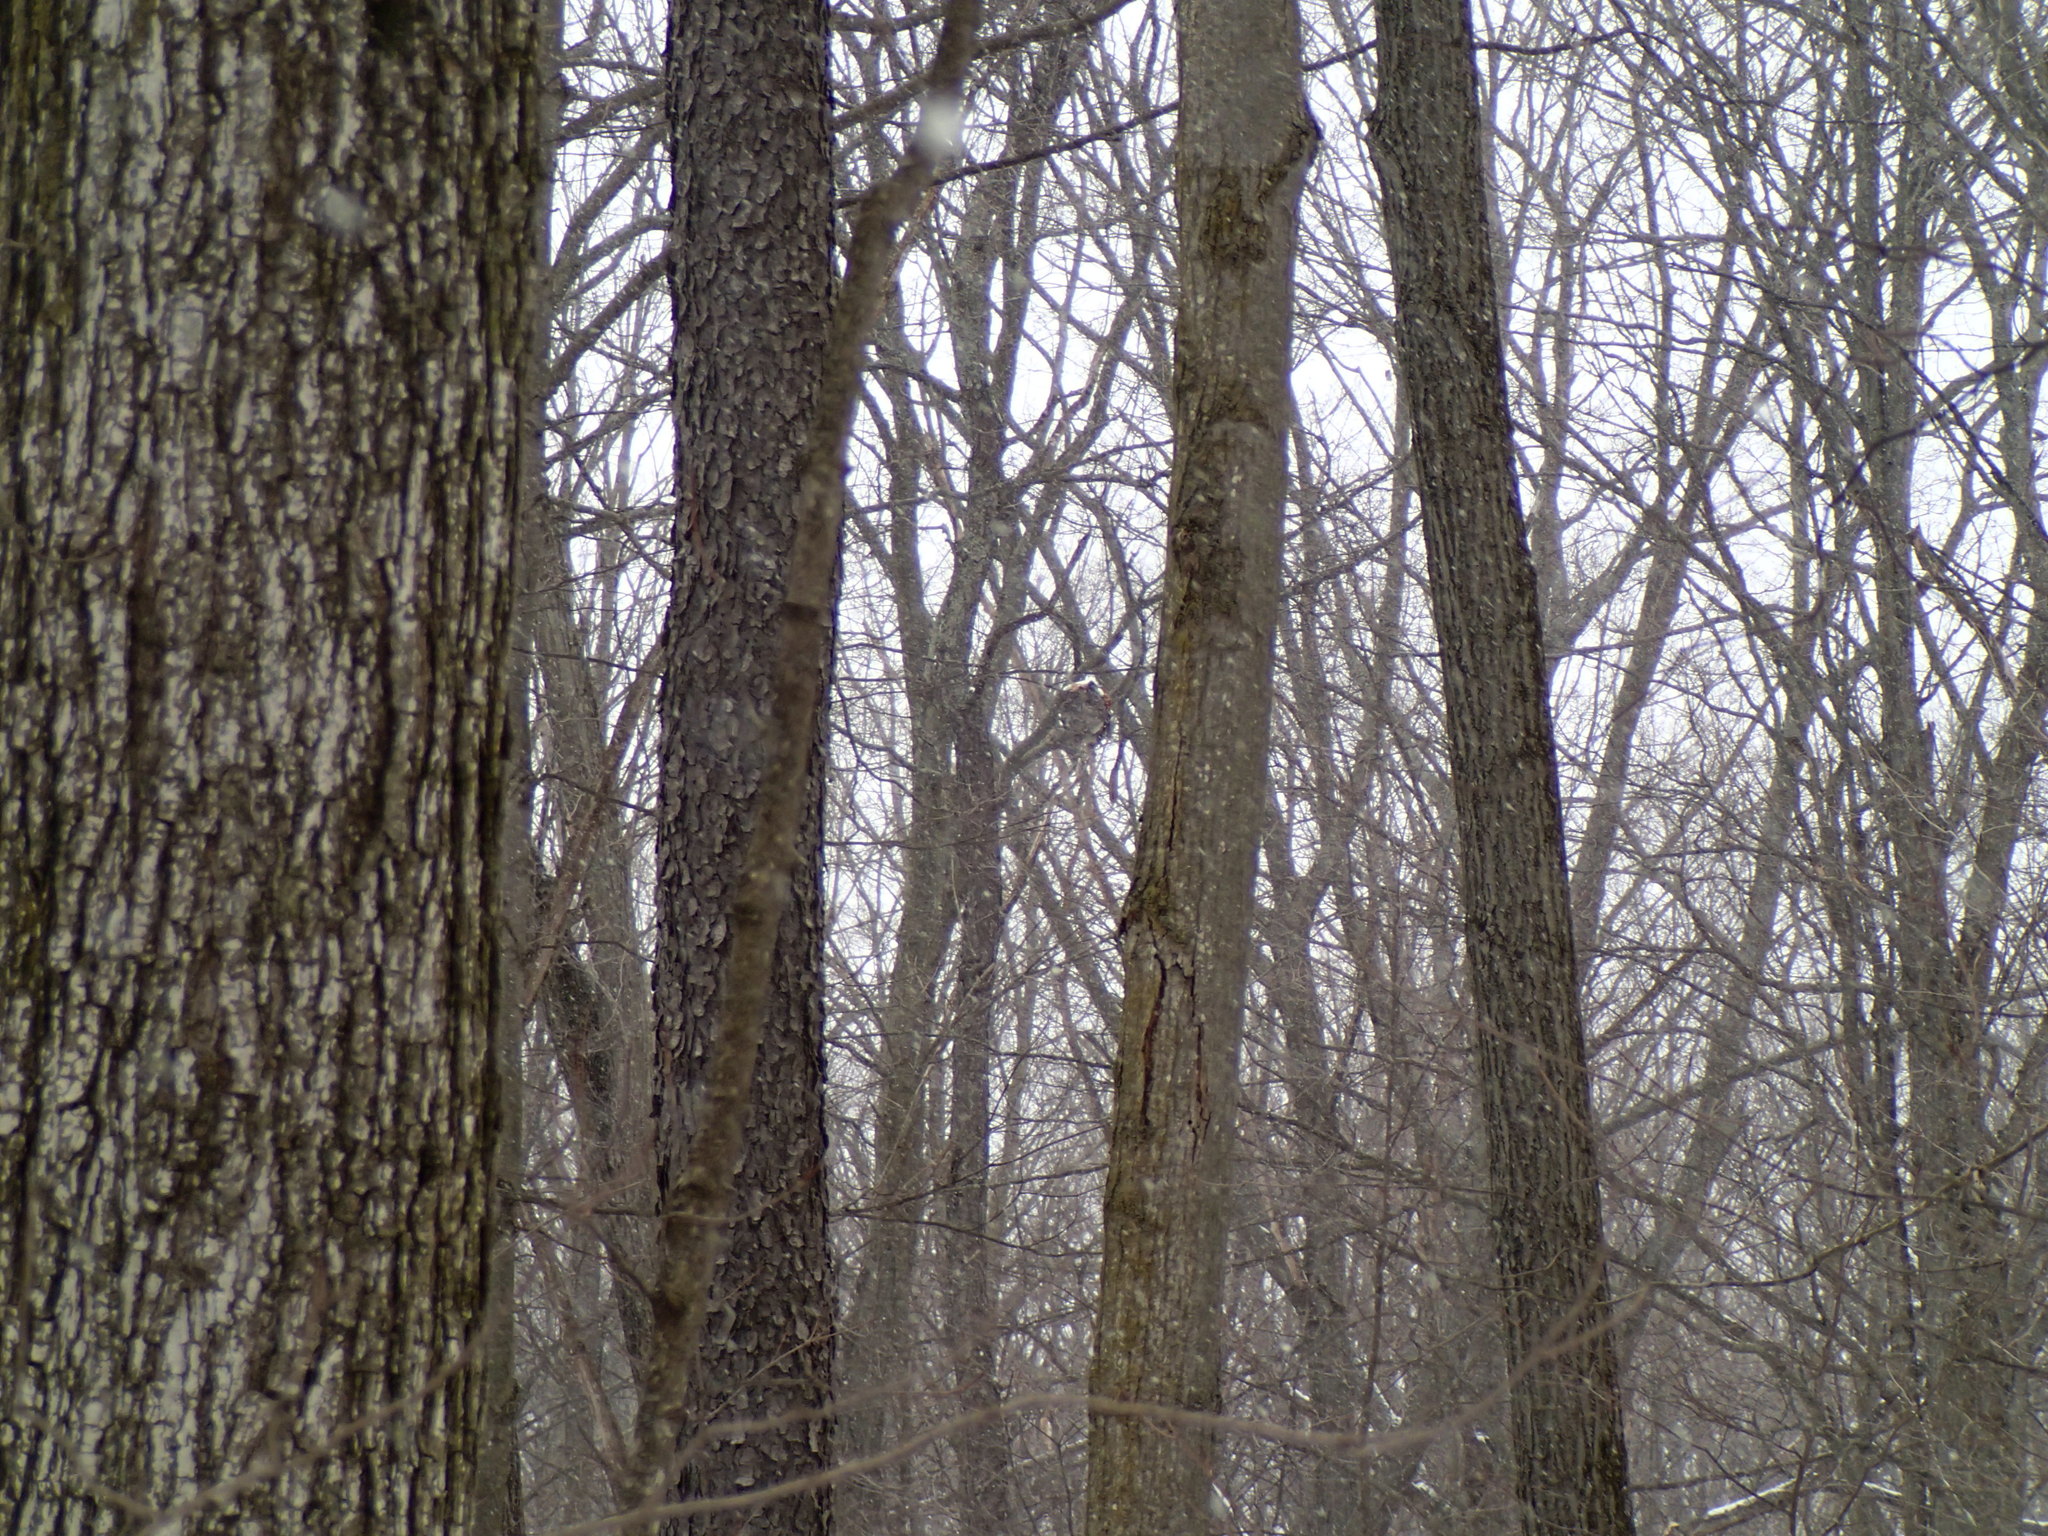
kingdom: Animalia
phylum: Arthropoda
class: Insecta
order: Hymenoptera
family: Vespidae
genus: Dolichovespula
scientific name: Dolichovespula
